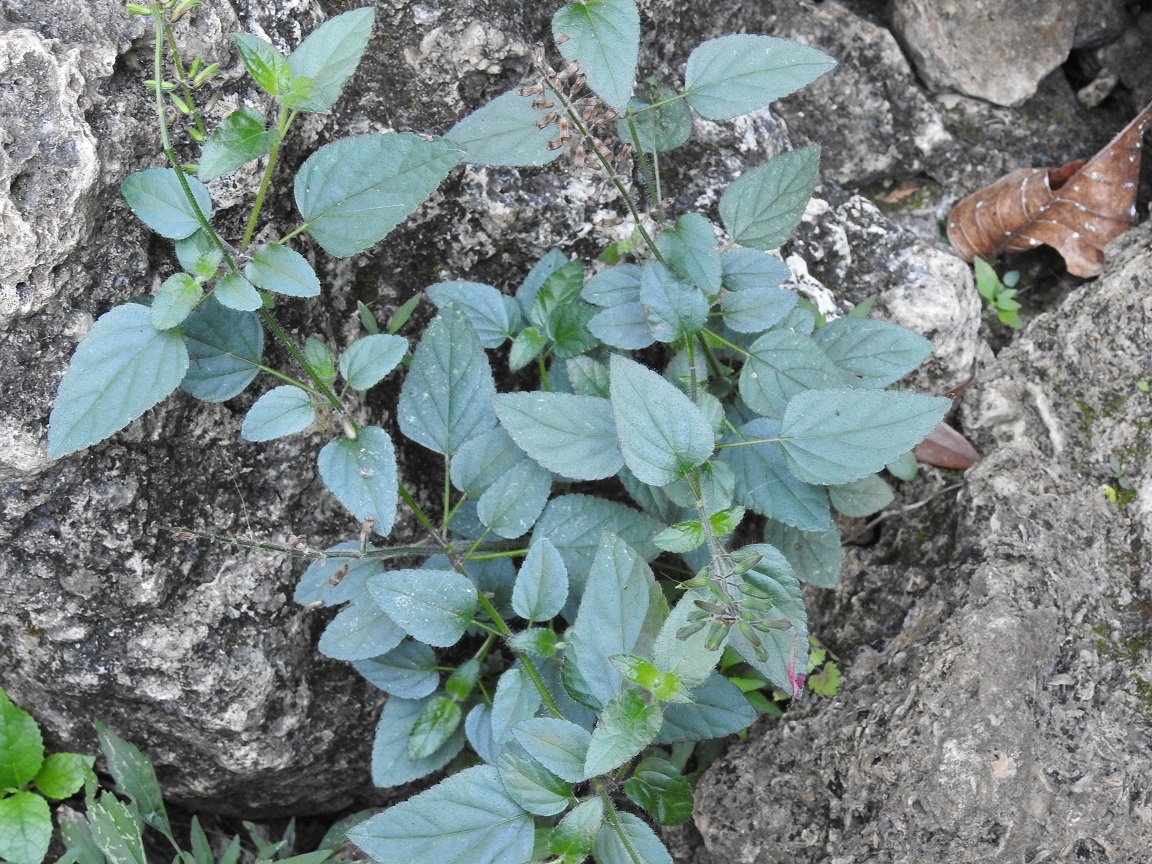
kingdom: Plantae
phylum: Tracheophyta
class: Magnoliopsida
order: Lamiales
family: Lamiaceae
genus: Salvia
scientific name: Salvia coccinea
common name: Blood sage
